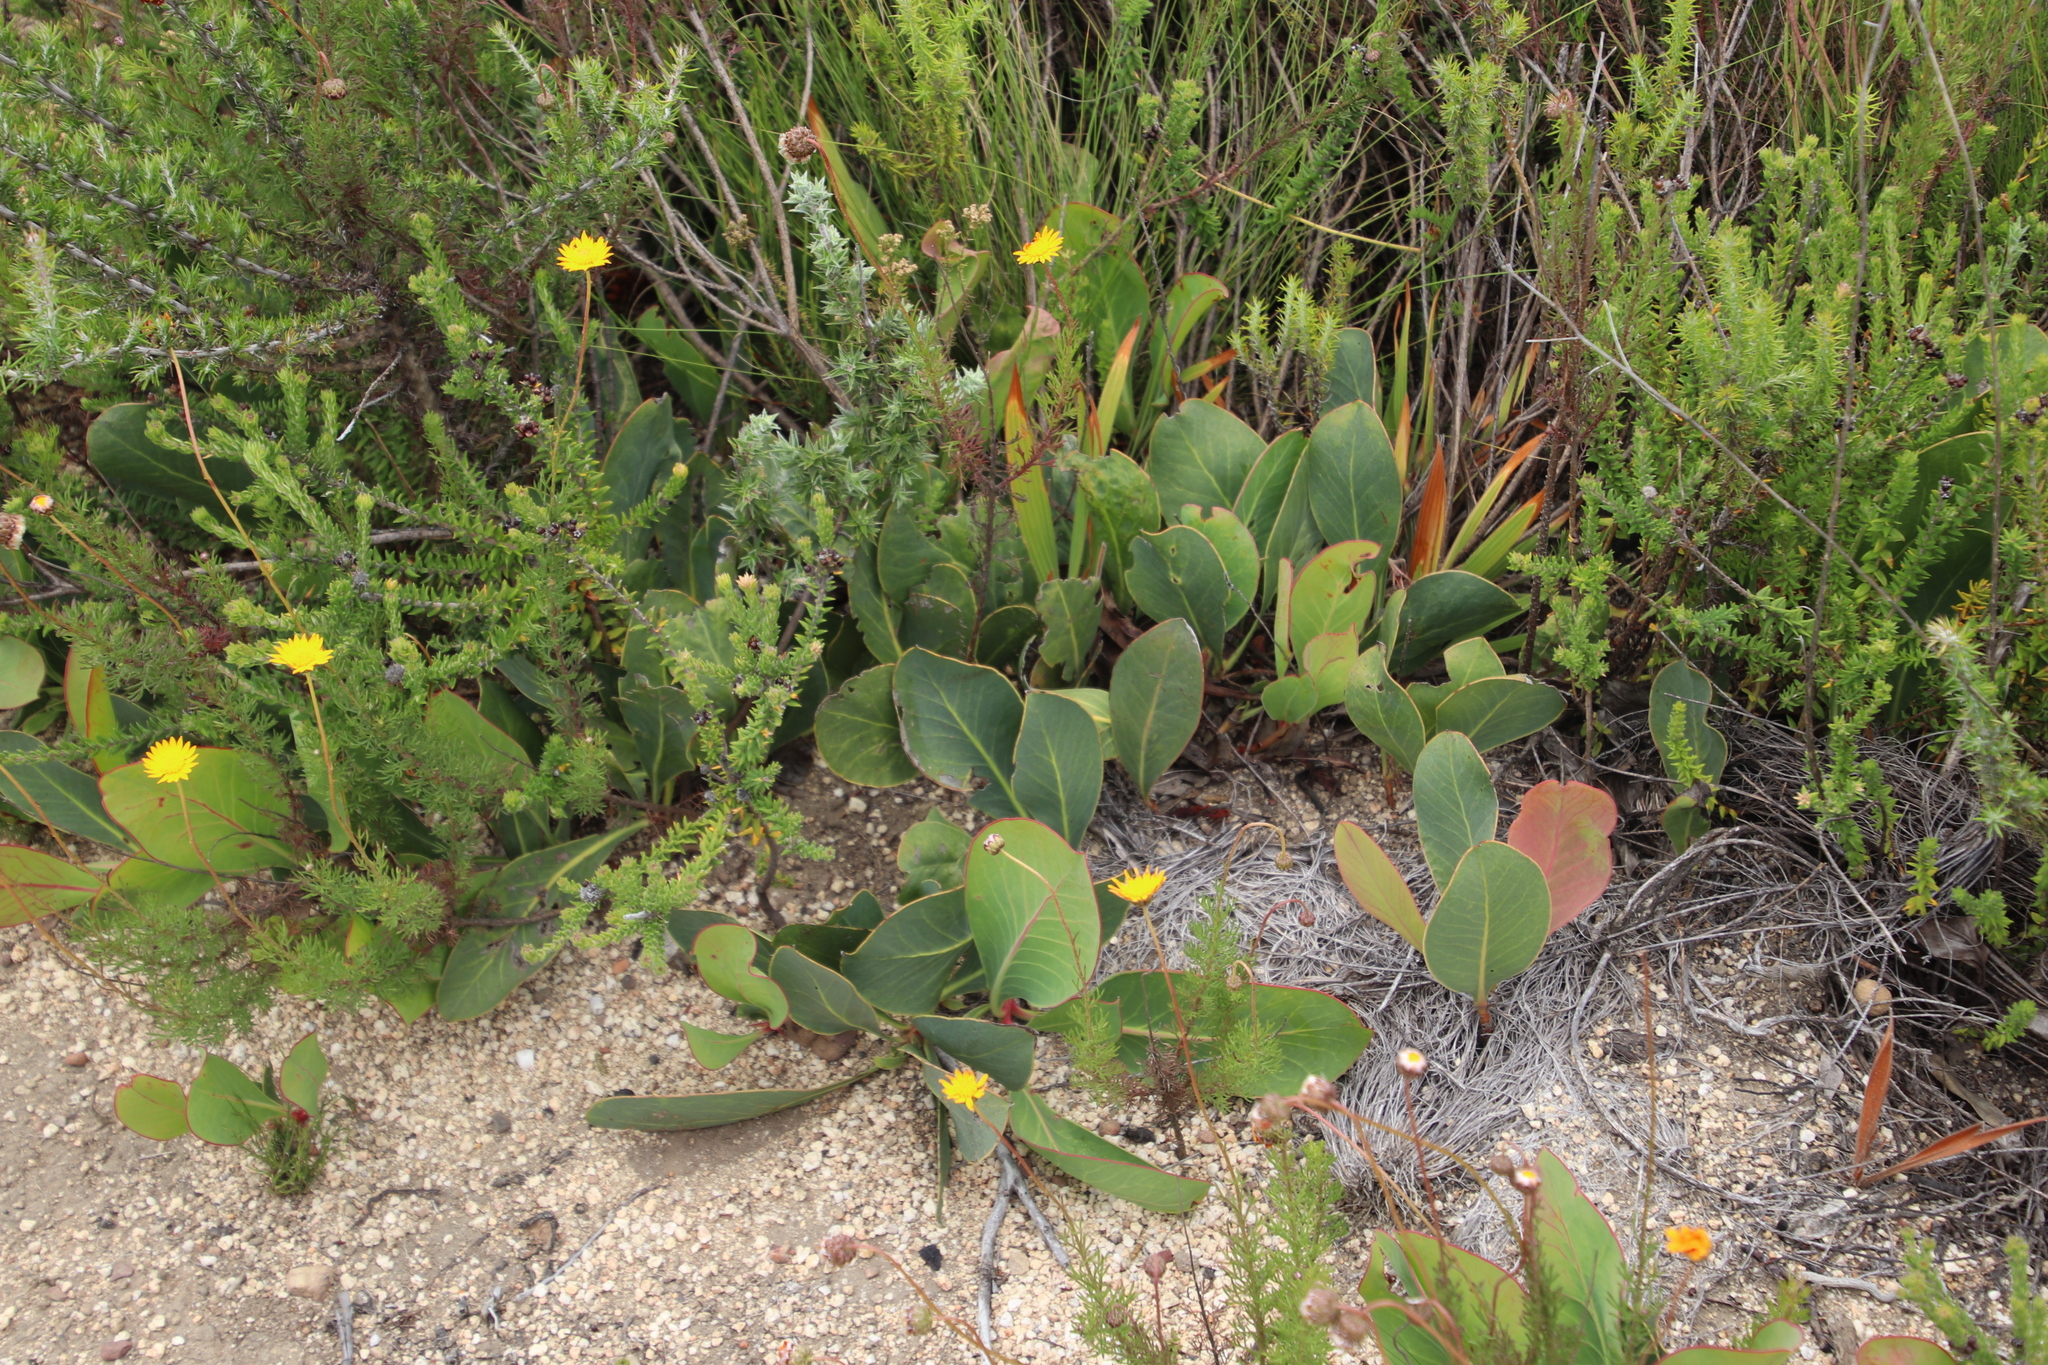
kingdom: Plantae
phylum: Tracheophyta
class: Magnoliopsida
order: Proteales
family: Proteaceae
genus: Protea
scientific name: Protea acaulos
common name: Common ground sugarbush
